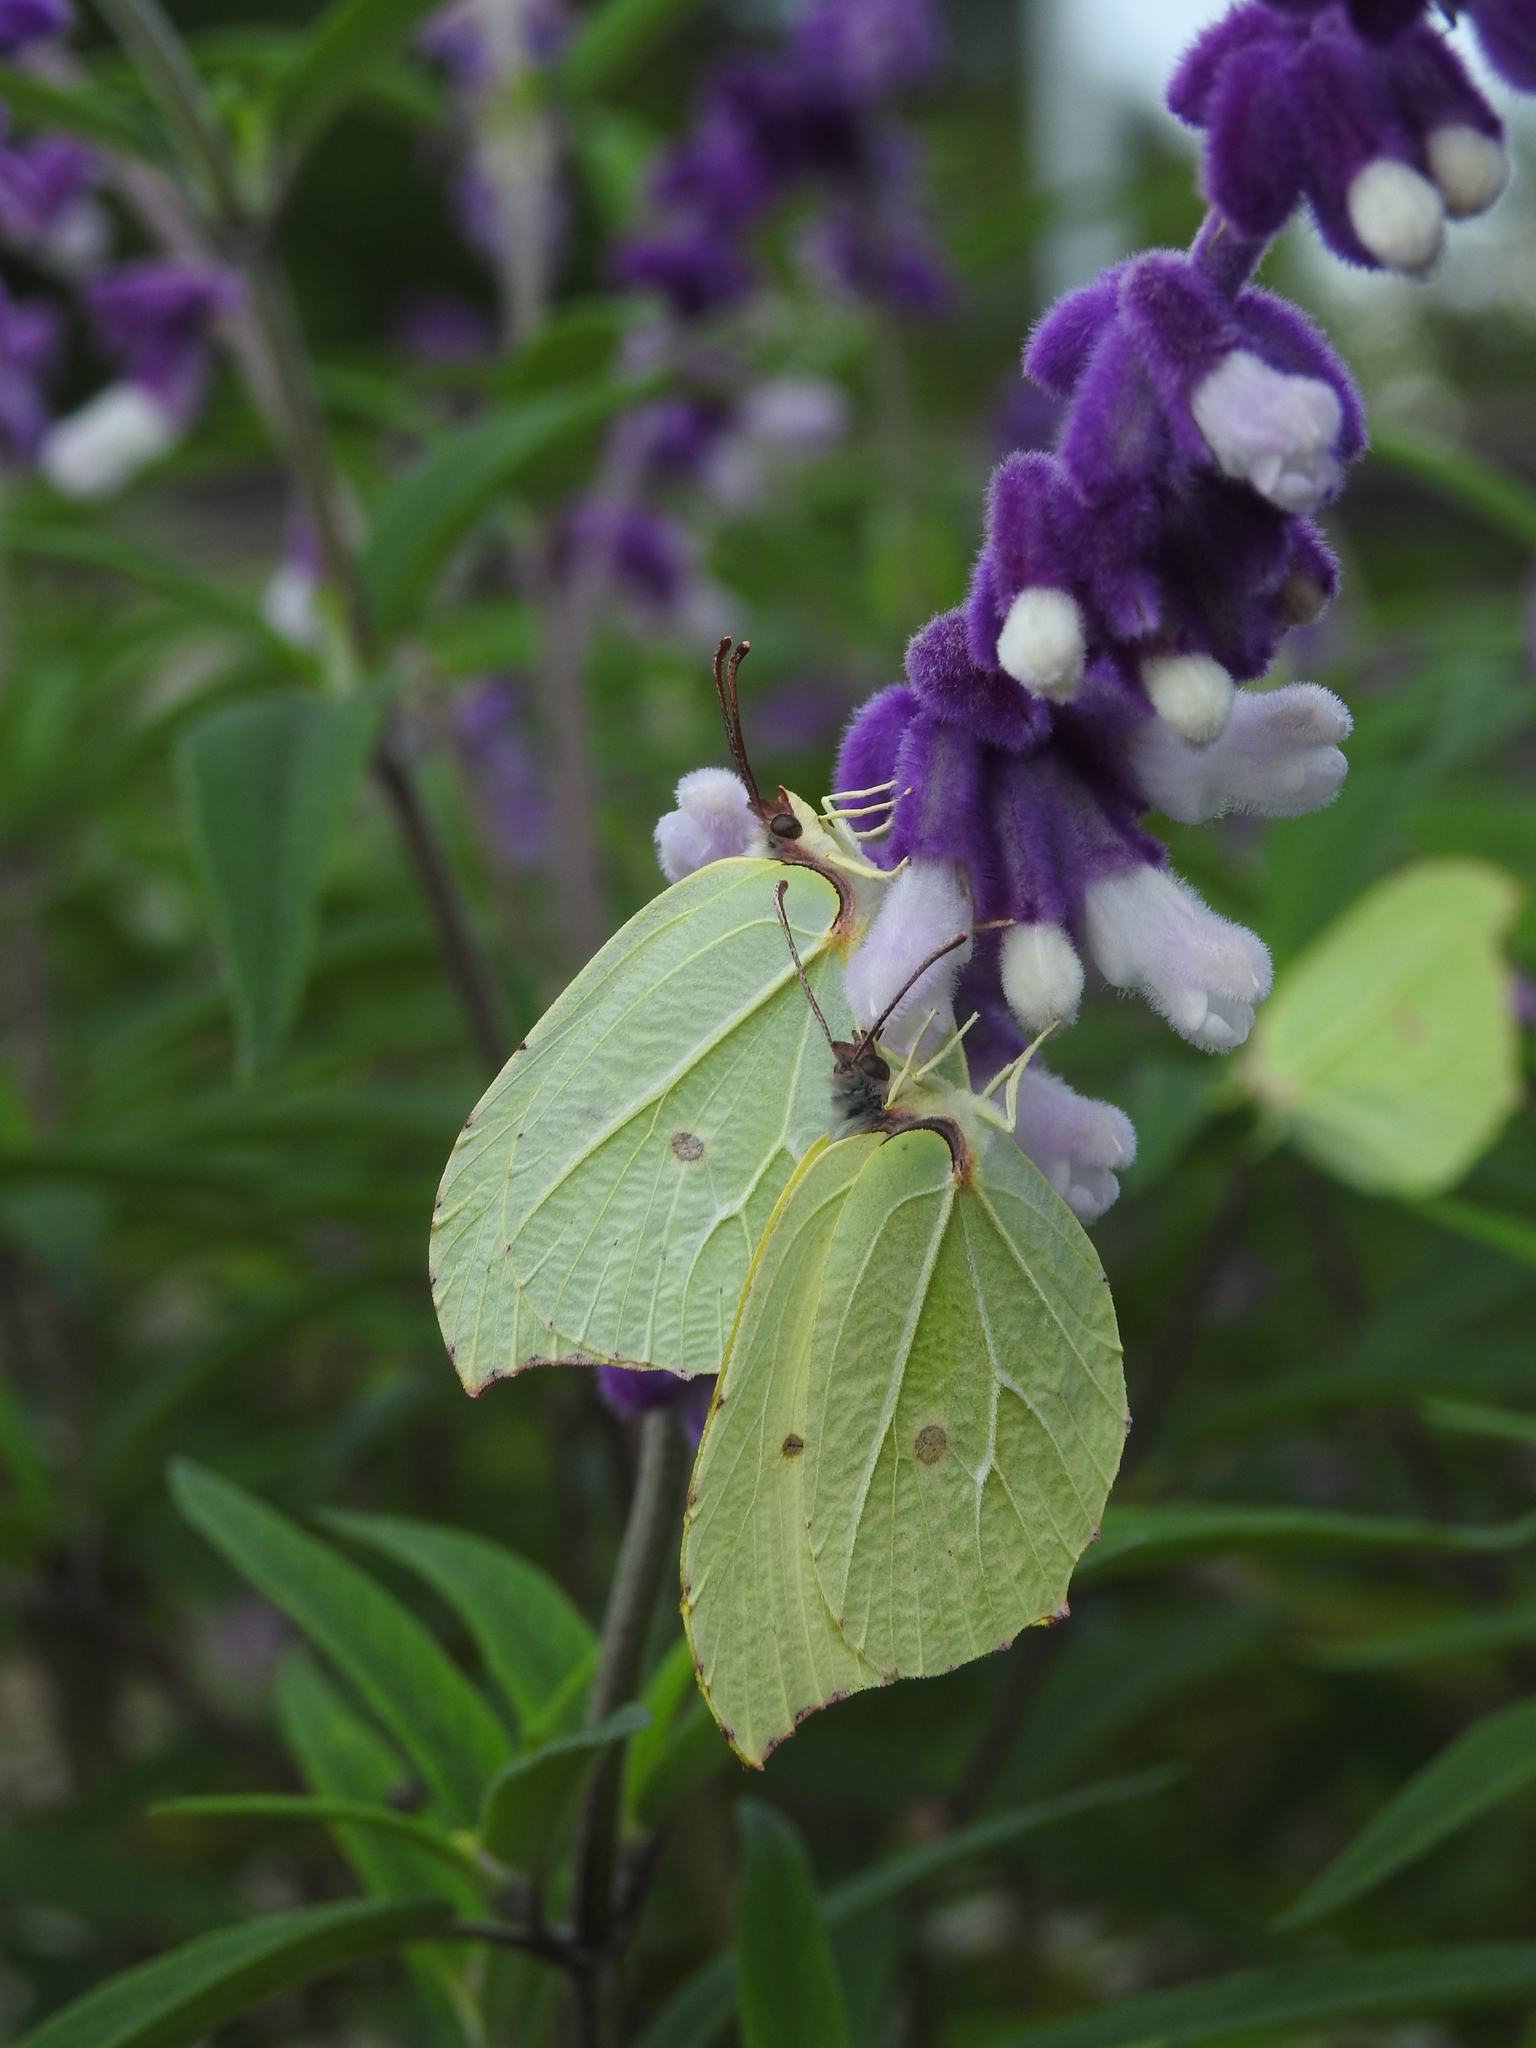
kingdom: Animalia
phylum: Arthropoda
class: Insecta
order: Lepidoptera
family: Pieridae
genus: Gonepteryx
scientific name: Gonepteryx
